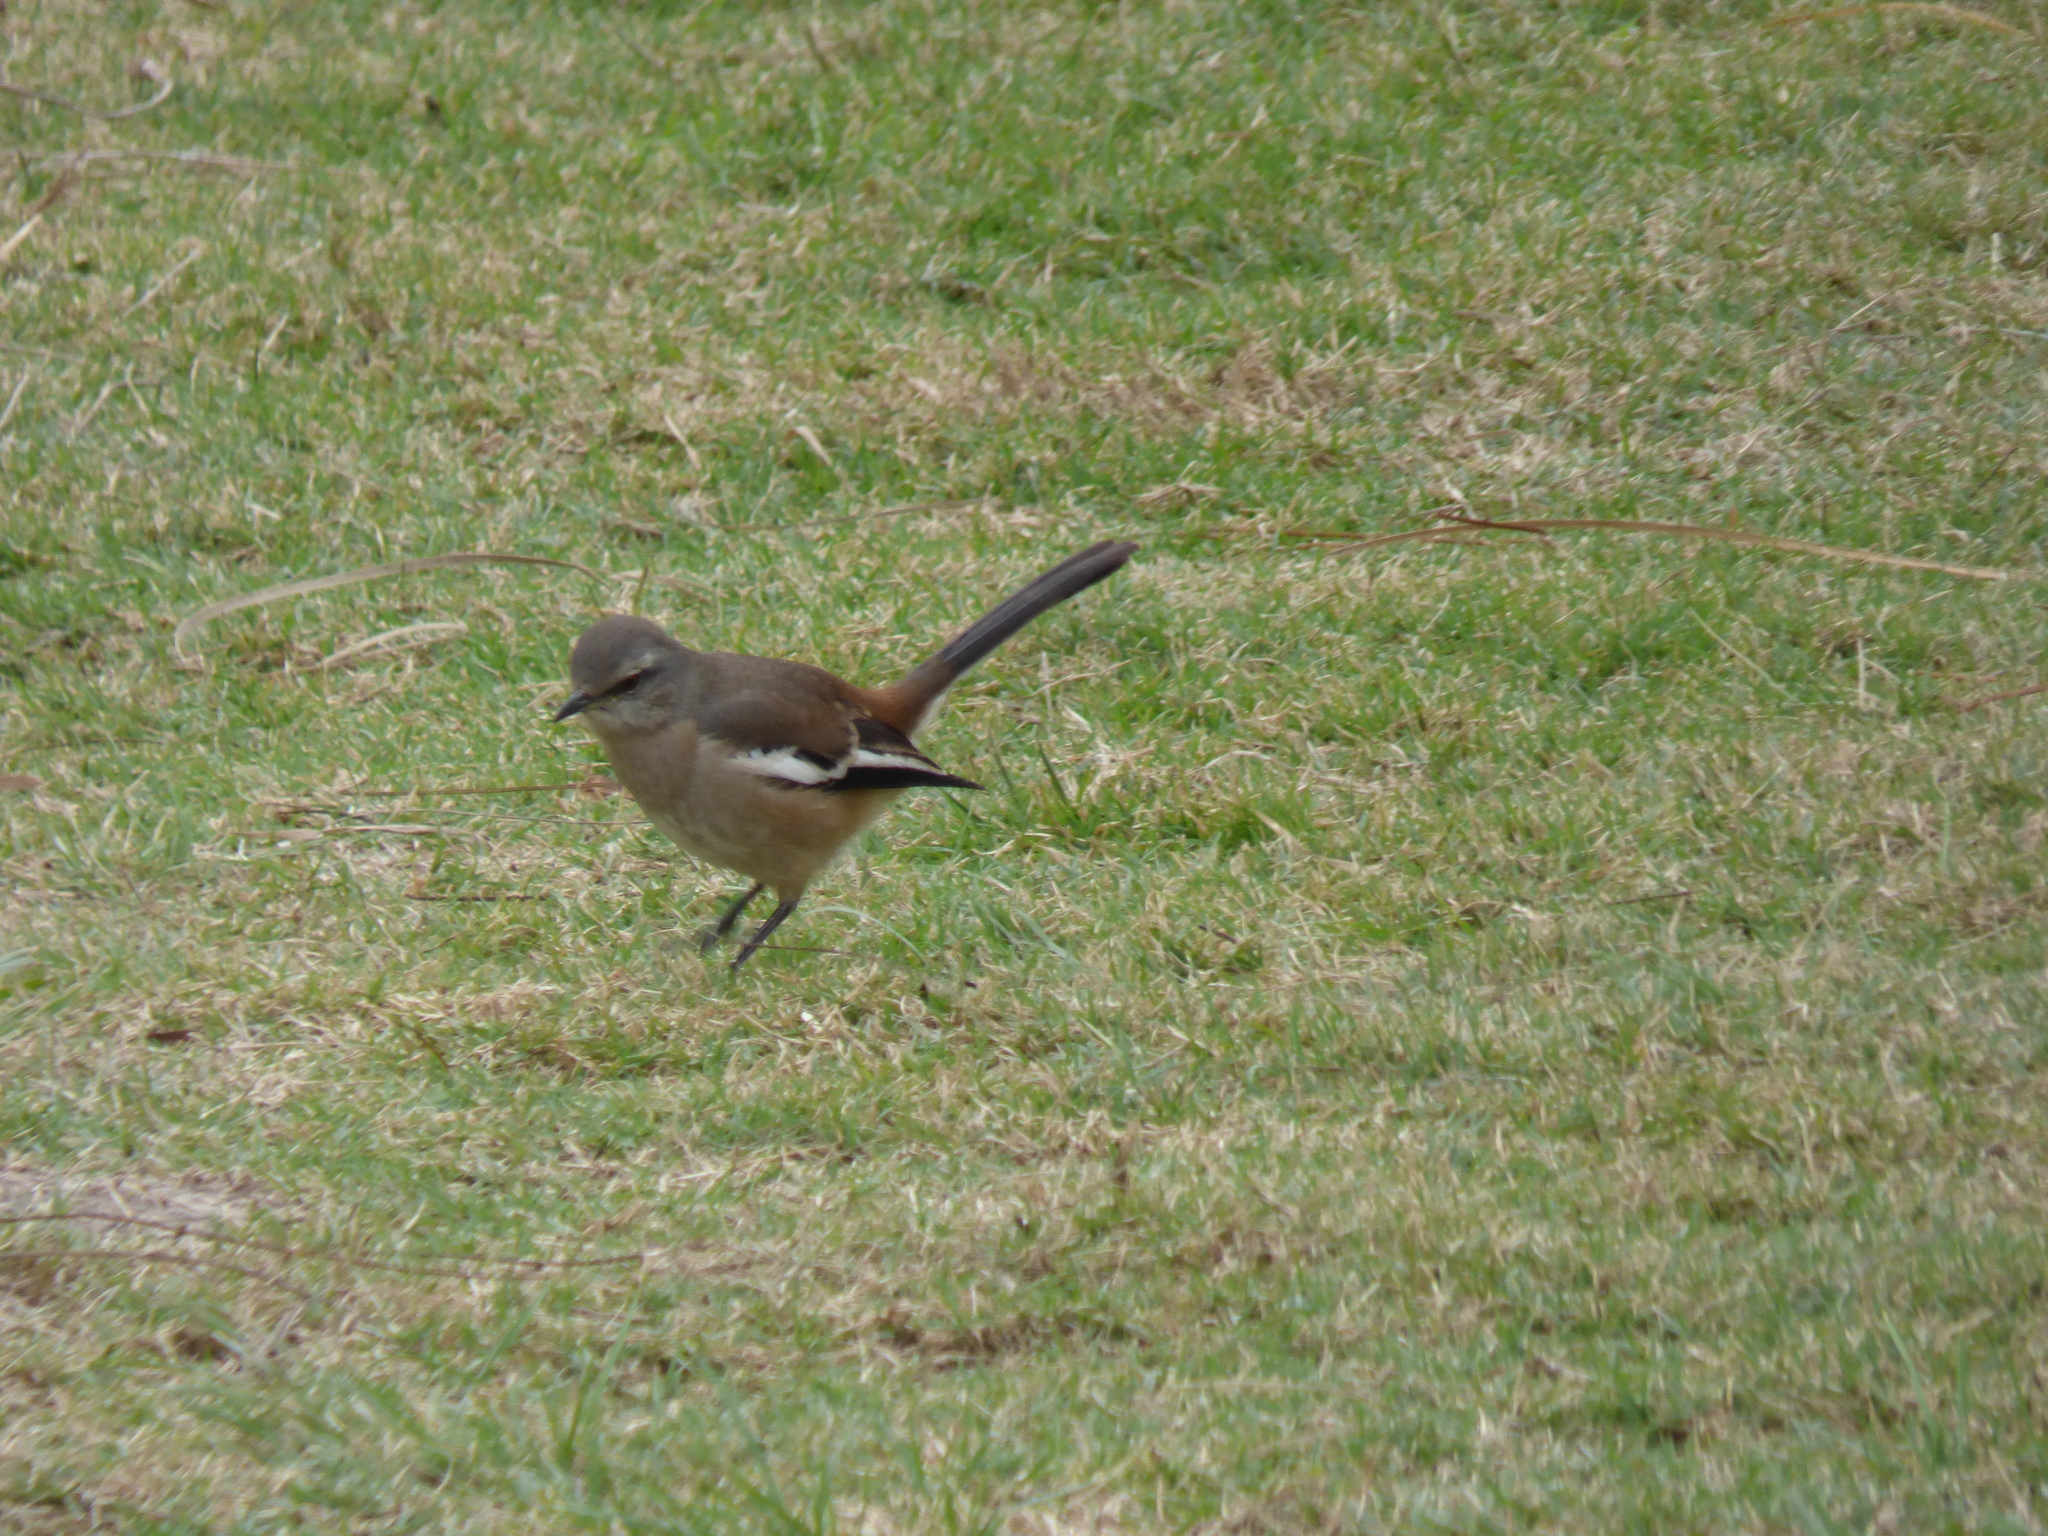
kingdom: Animalia
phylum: Chordata
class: Aves
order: Passeriformes
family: Mimidae
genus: Mimus
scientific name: Mimus triurus
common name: White-banded mockingbird
